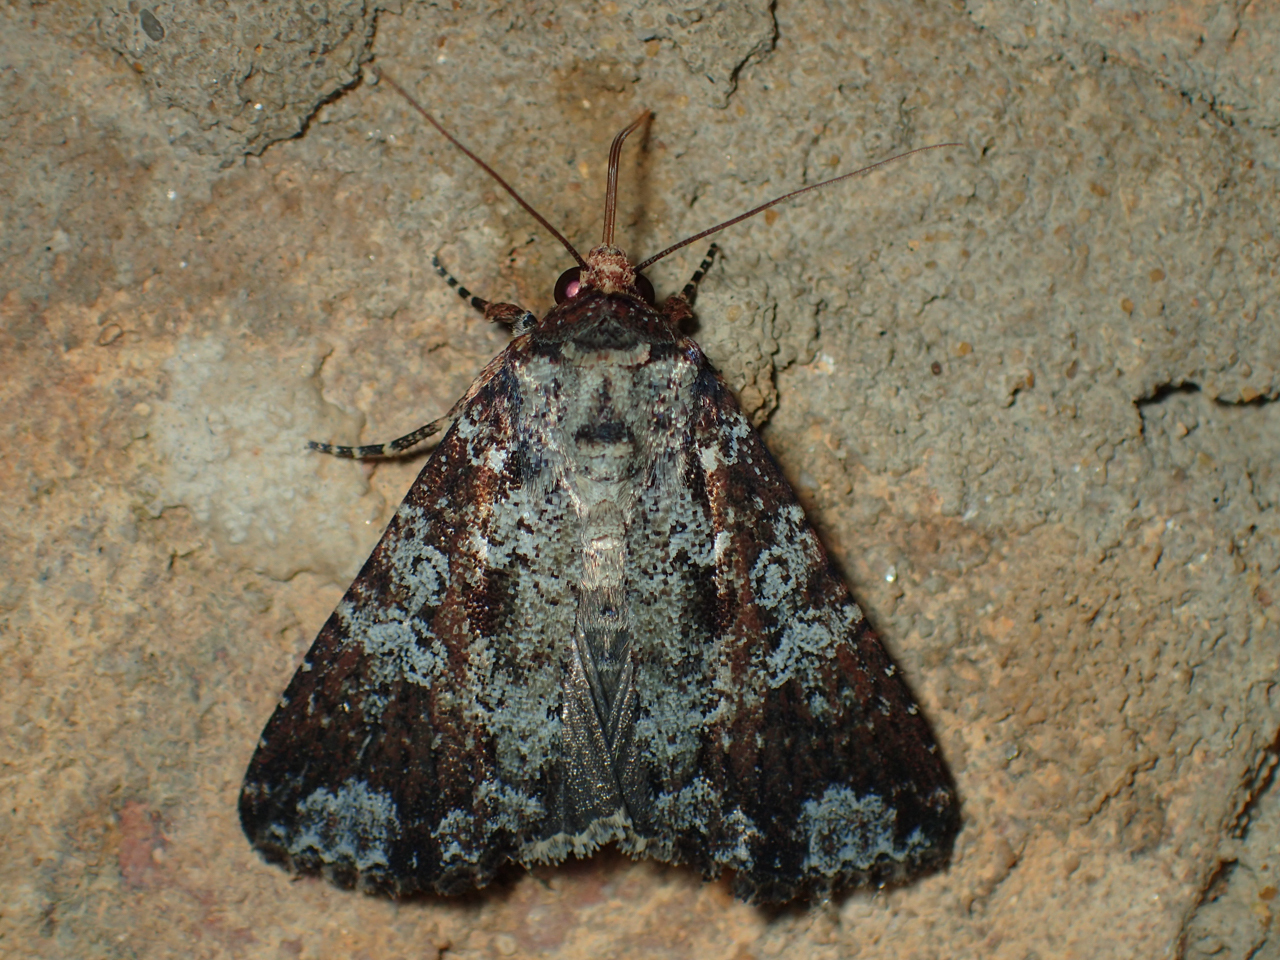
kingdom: Animalia
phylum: Arthropoda
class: Insecta
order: Lepidoptera
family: Noctuidae
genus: Condica
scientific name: Condica confederata
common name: The confederate
